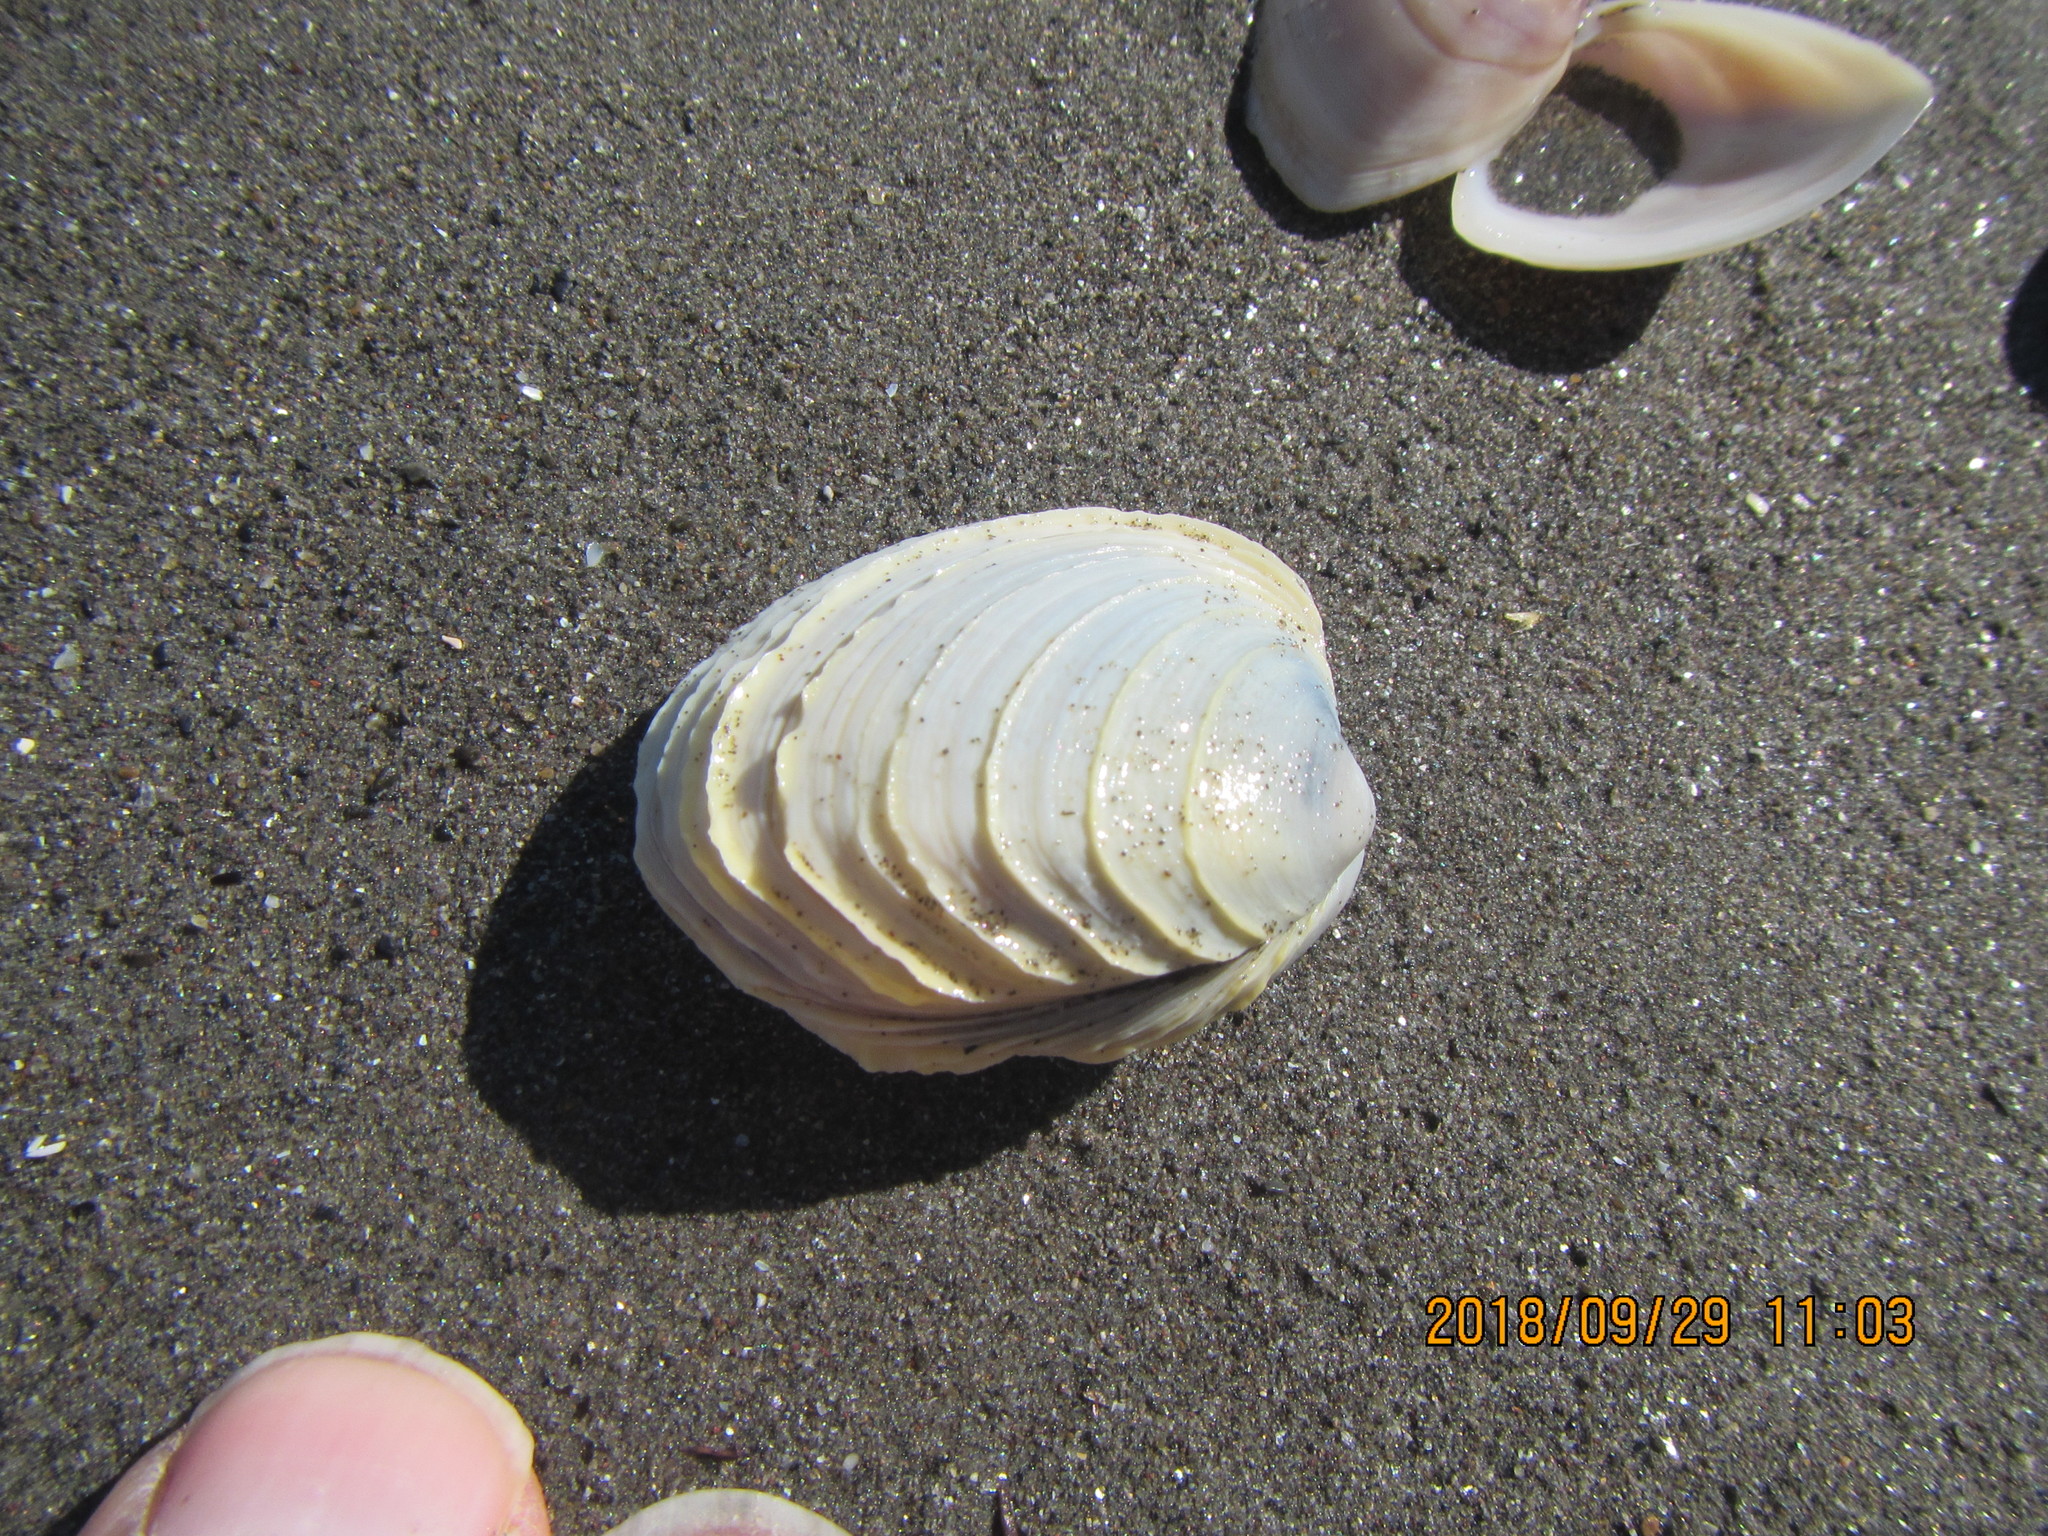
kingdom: Animalia
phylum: Mollusca
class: Bivalvia
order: Venerida
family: Veneridae
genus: Bassina
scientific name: Bassina yatei
